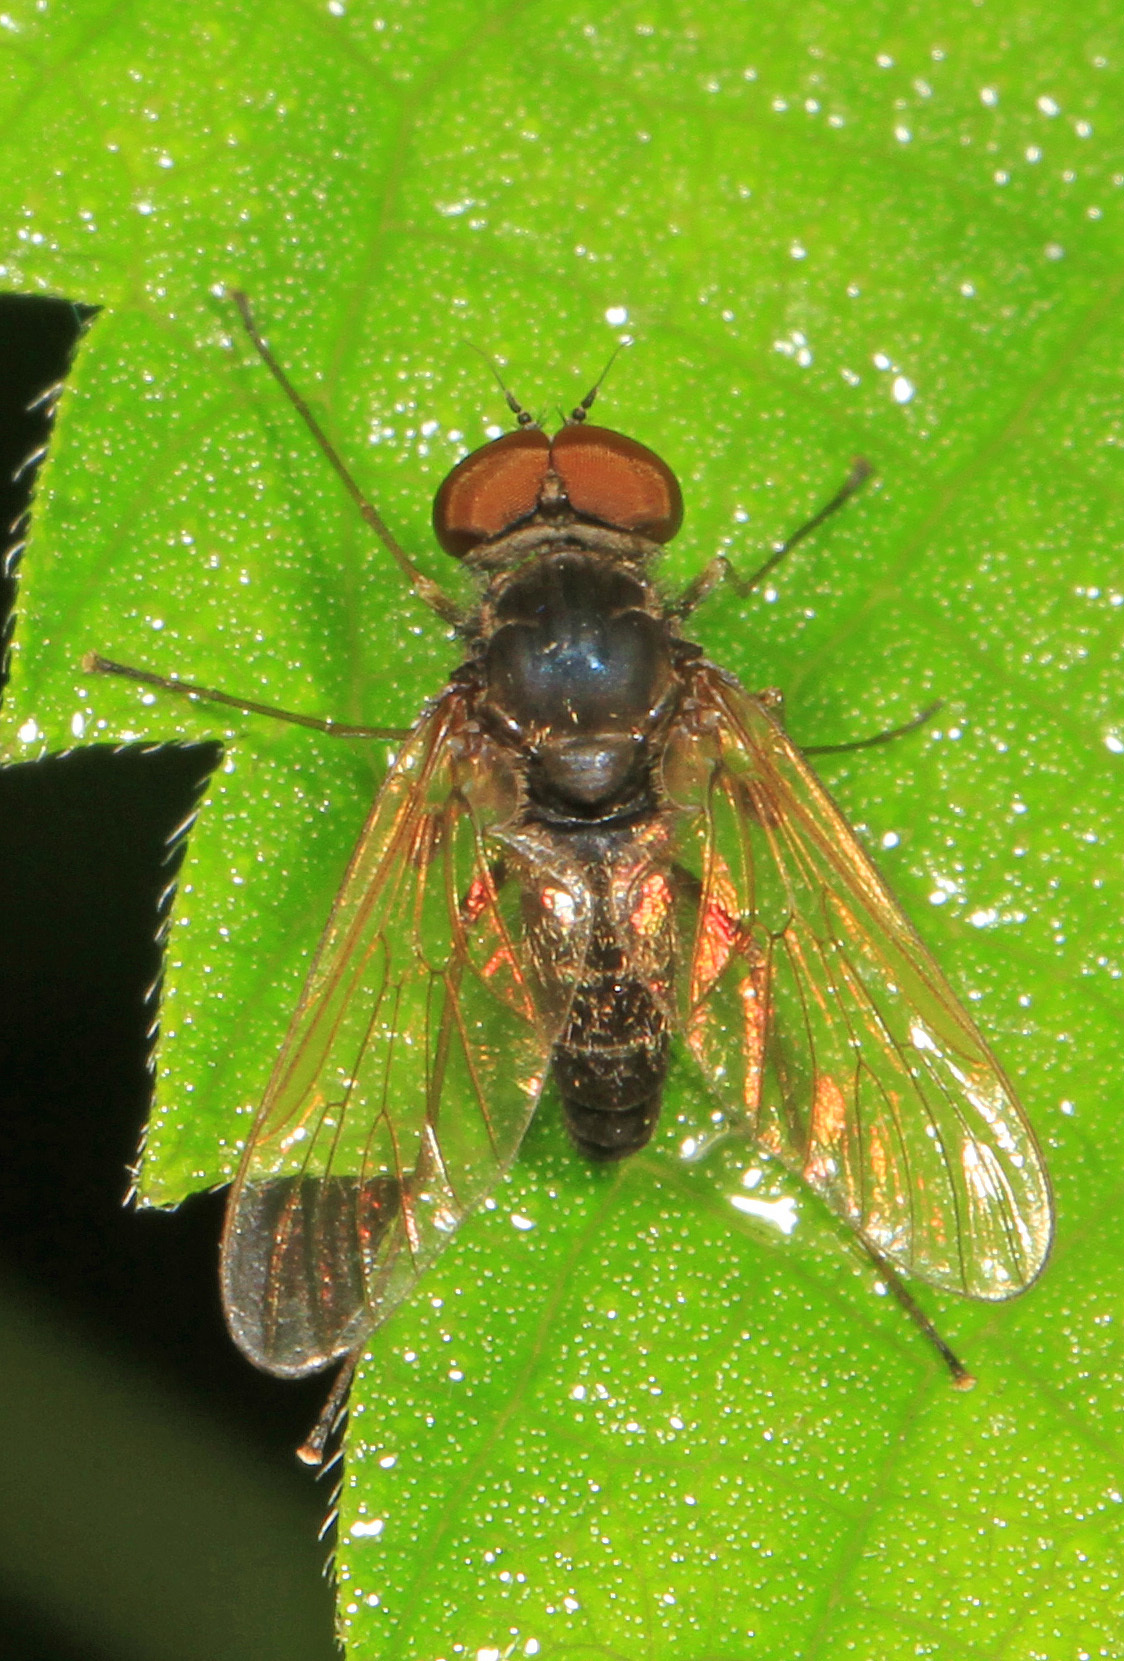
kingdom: Animalia
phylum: Arthropoda
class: Insecta
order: Diptera
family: Rhagionidae
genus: Chrysopilus
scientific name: Chrysopilus proximus
